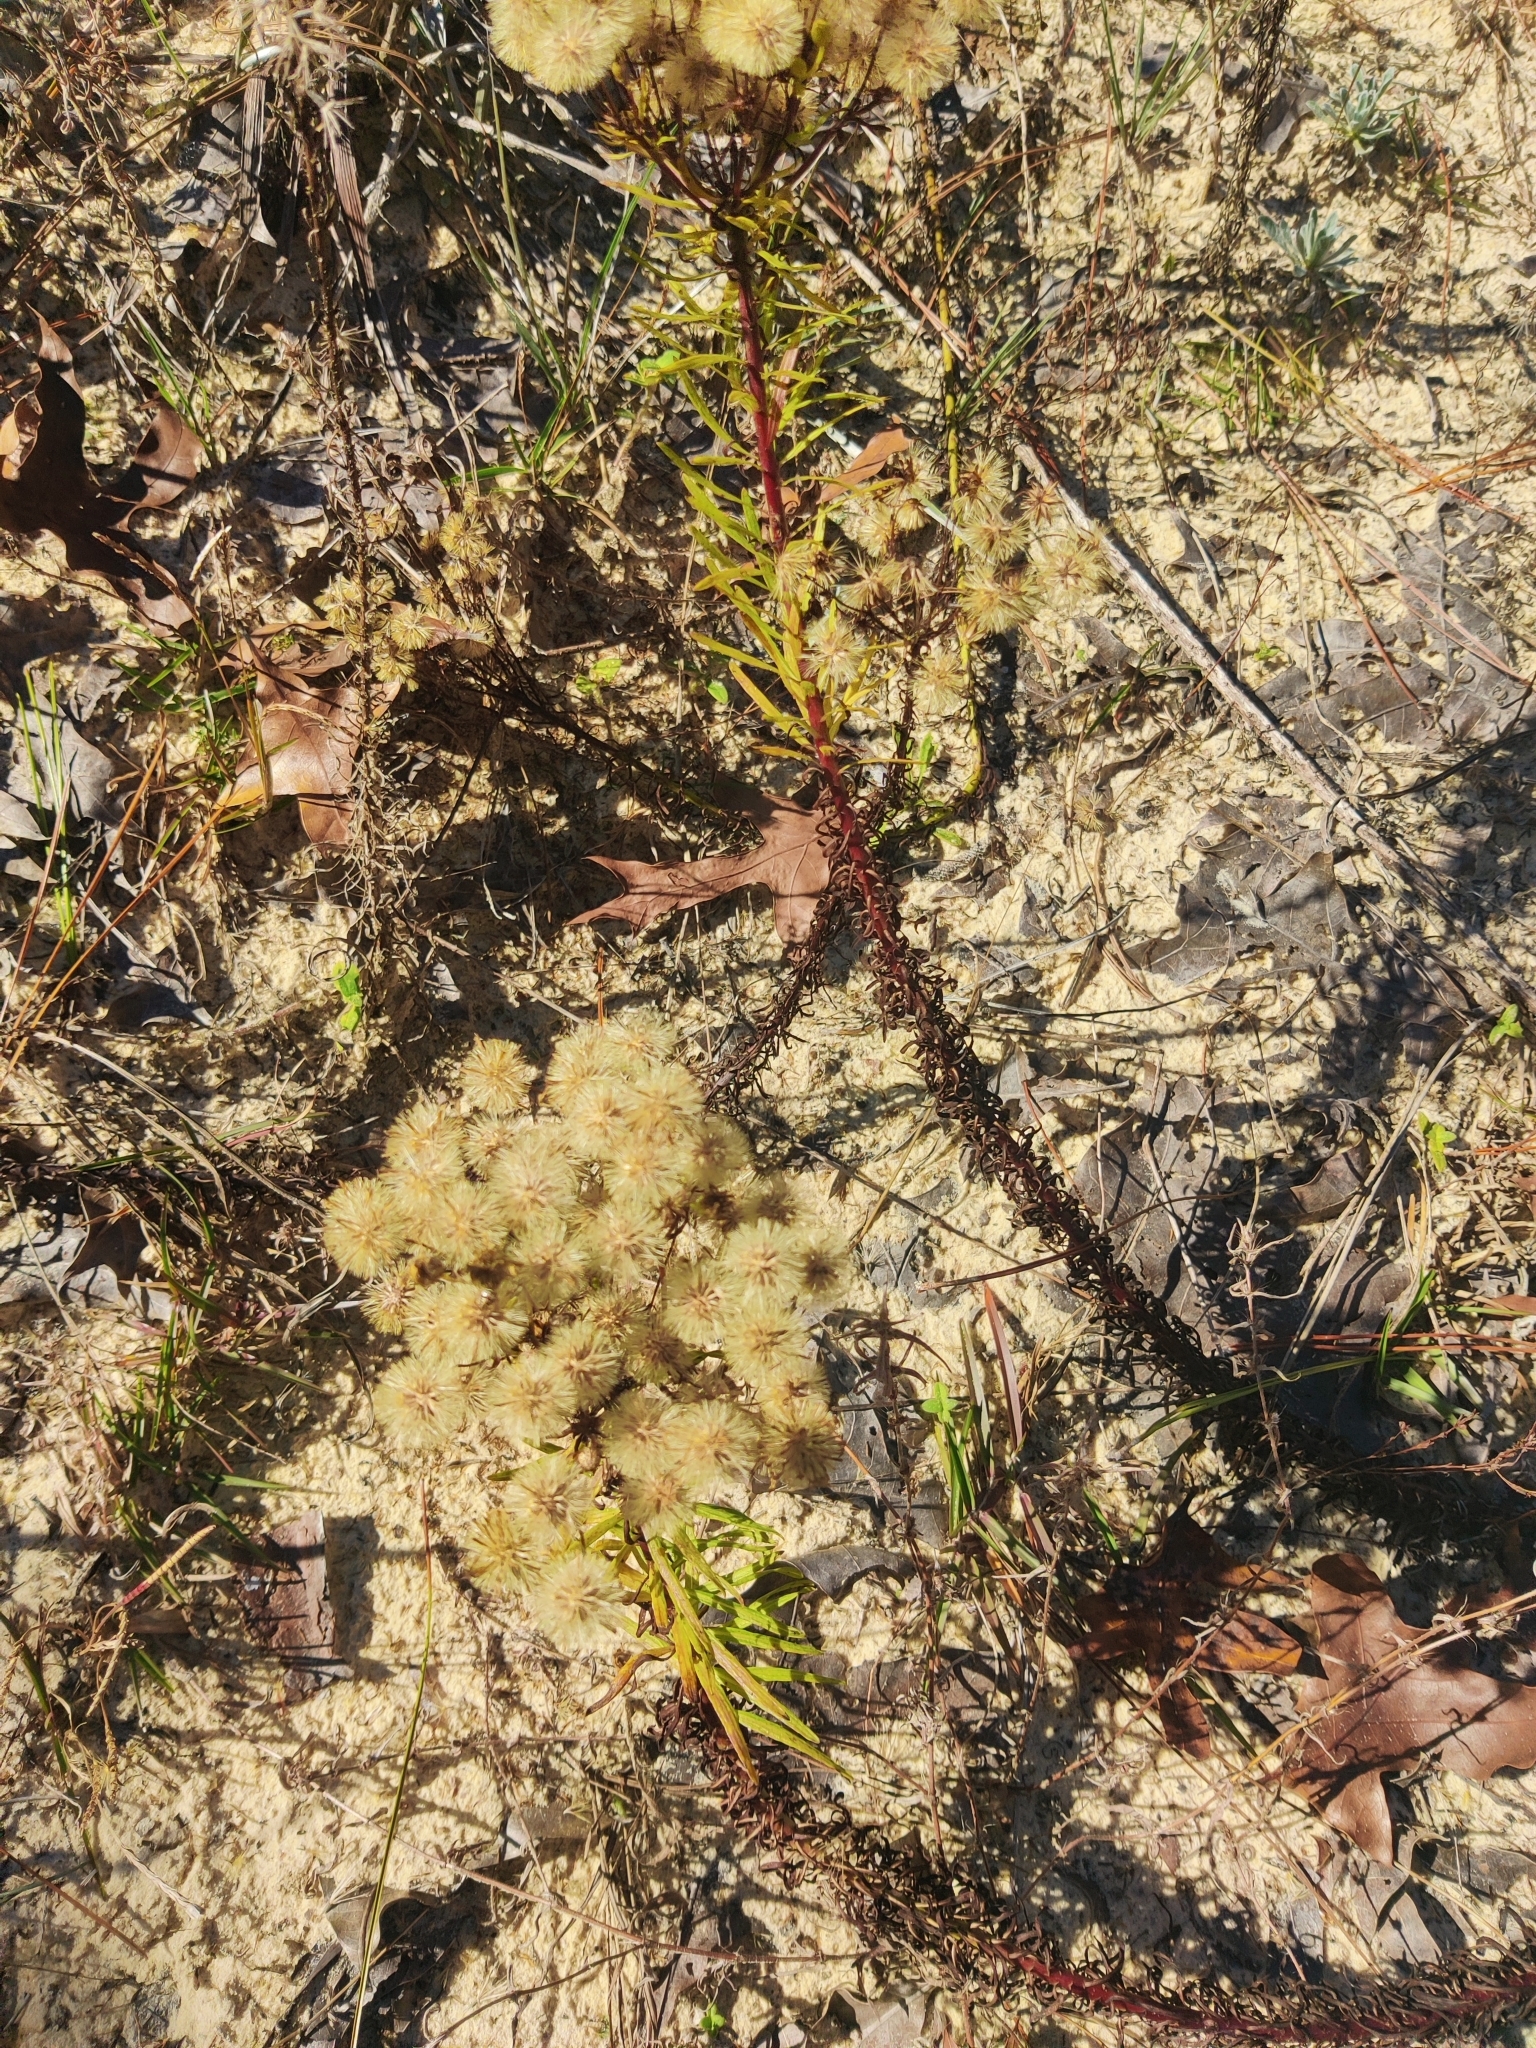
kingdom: Plantae
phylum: Tracheophyta
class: Magnoliopsida
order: Asterales
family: Asteraceae
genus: Chrysopsis
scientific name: Chrysopsis linearifolia
